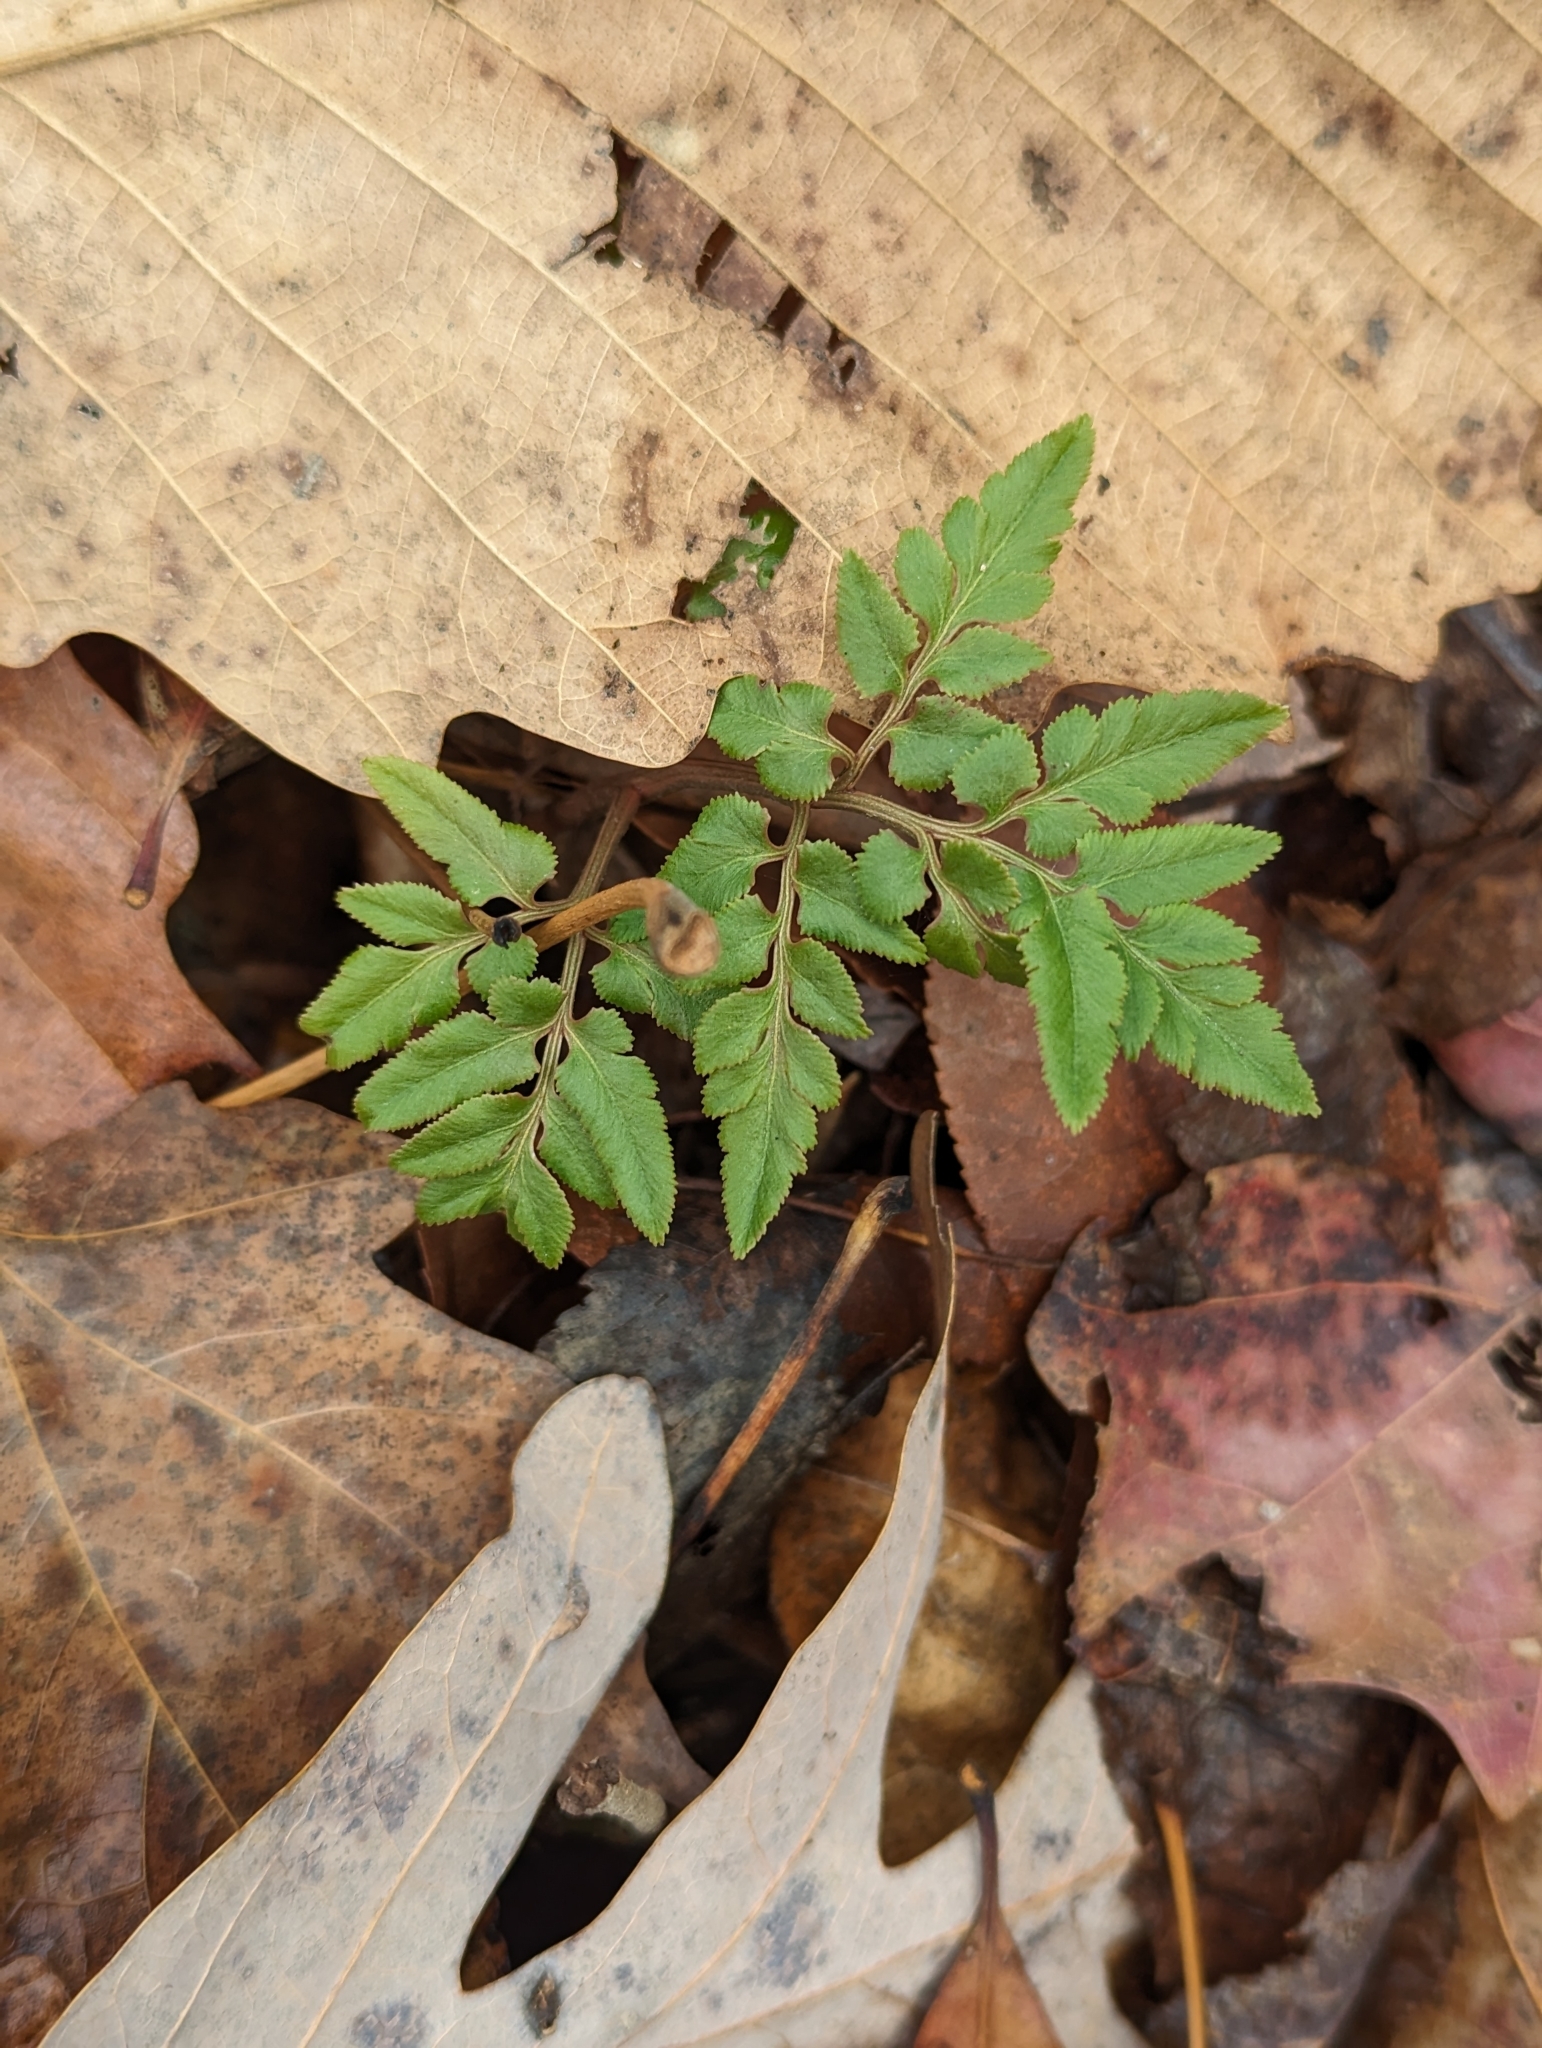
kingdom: Plantae
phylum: Tracheophyta
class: Polypodiopsida
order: Ophioglossales
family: Ophioglossaceae
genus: Sceptridium
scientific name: Sceptridium dissectum
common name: Cut-leaved grapefern
